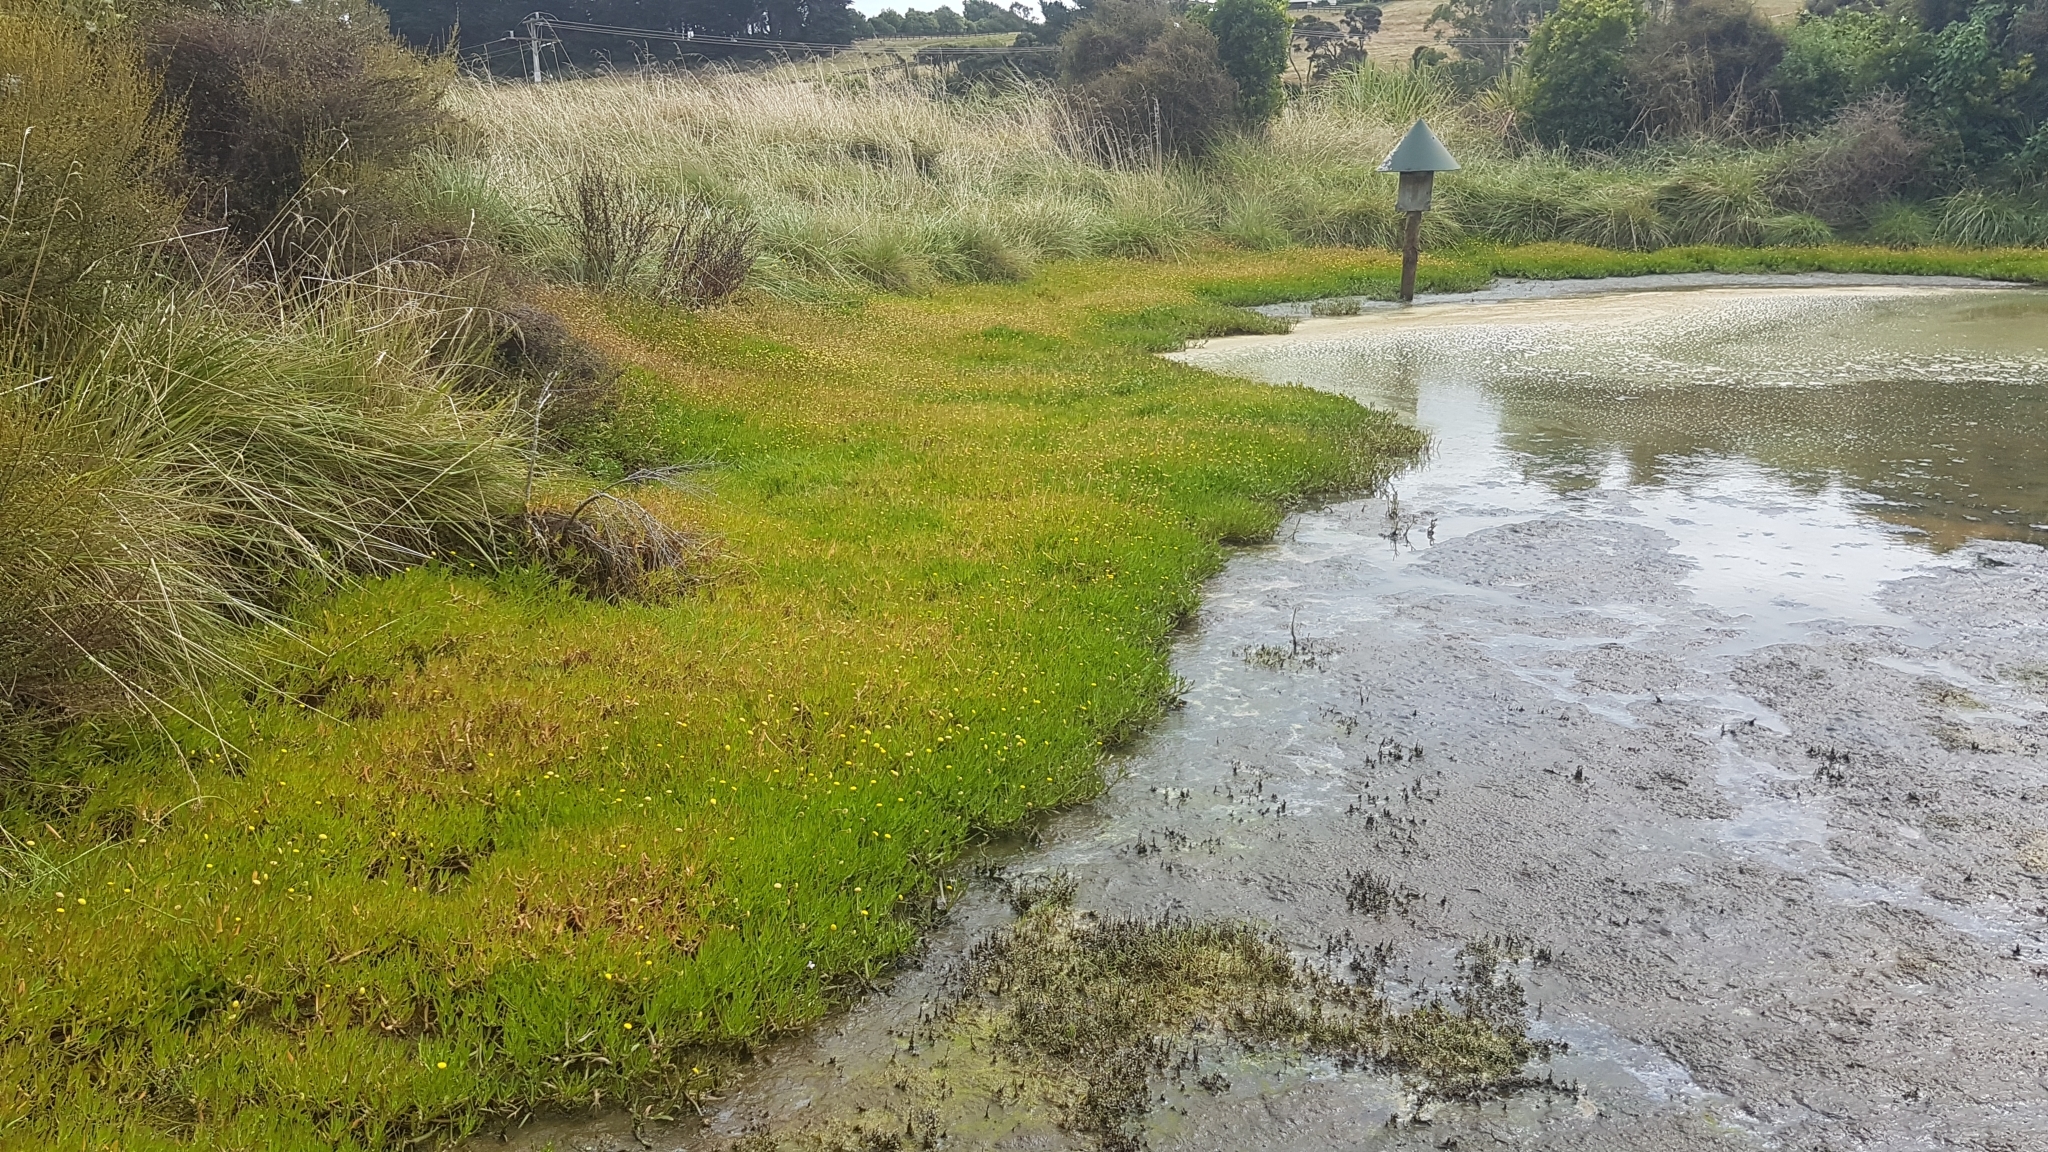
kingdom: Plantae
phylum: Tracheophyta
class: Magnoliopsida
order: Asterales
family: Asteraceae
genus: Cotula
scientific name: Cotula coronopifolia
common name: Buttonweed
